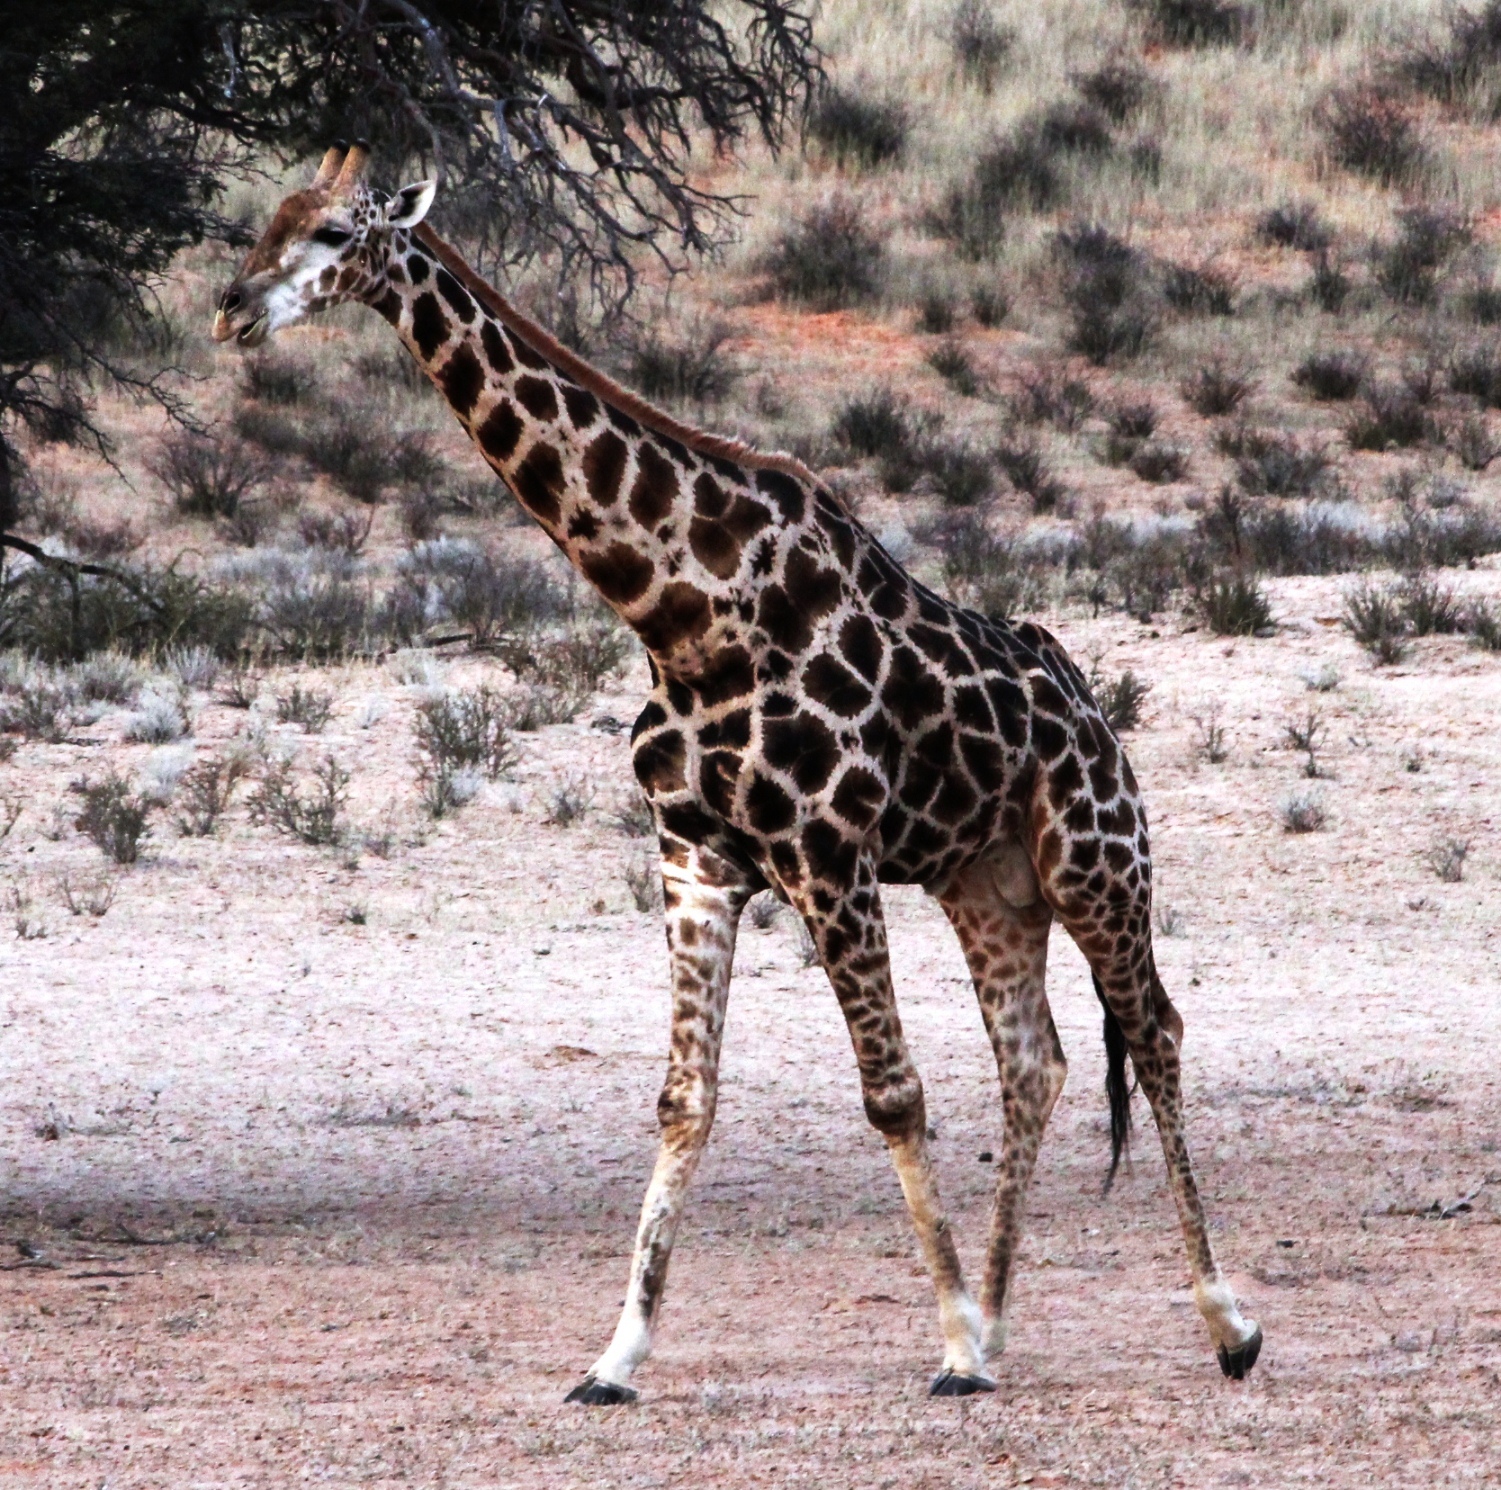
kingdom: Animalia
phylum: Chordata
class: Mammalia
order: Artiodactyla
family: Giraffidae
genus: Giraffa
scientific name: Giraffa giraffa
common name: Southern giraffe
